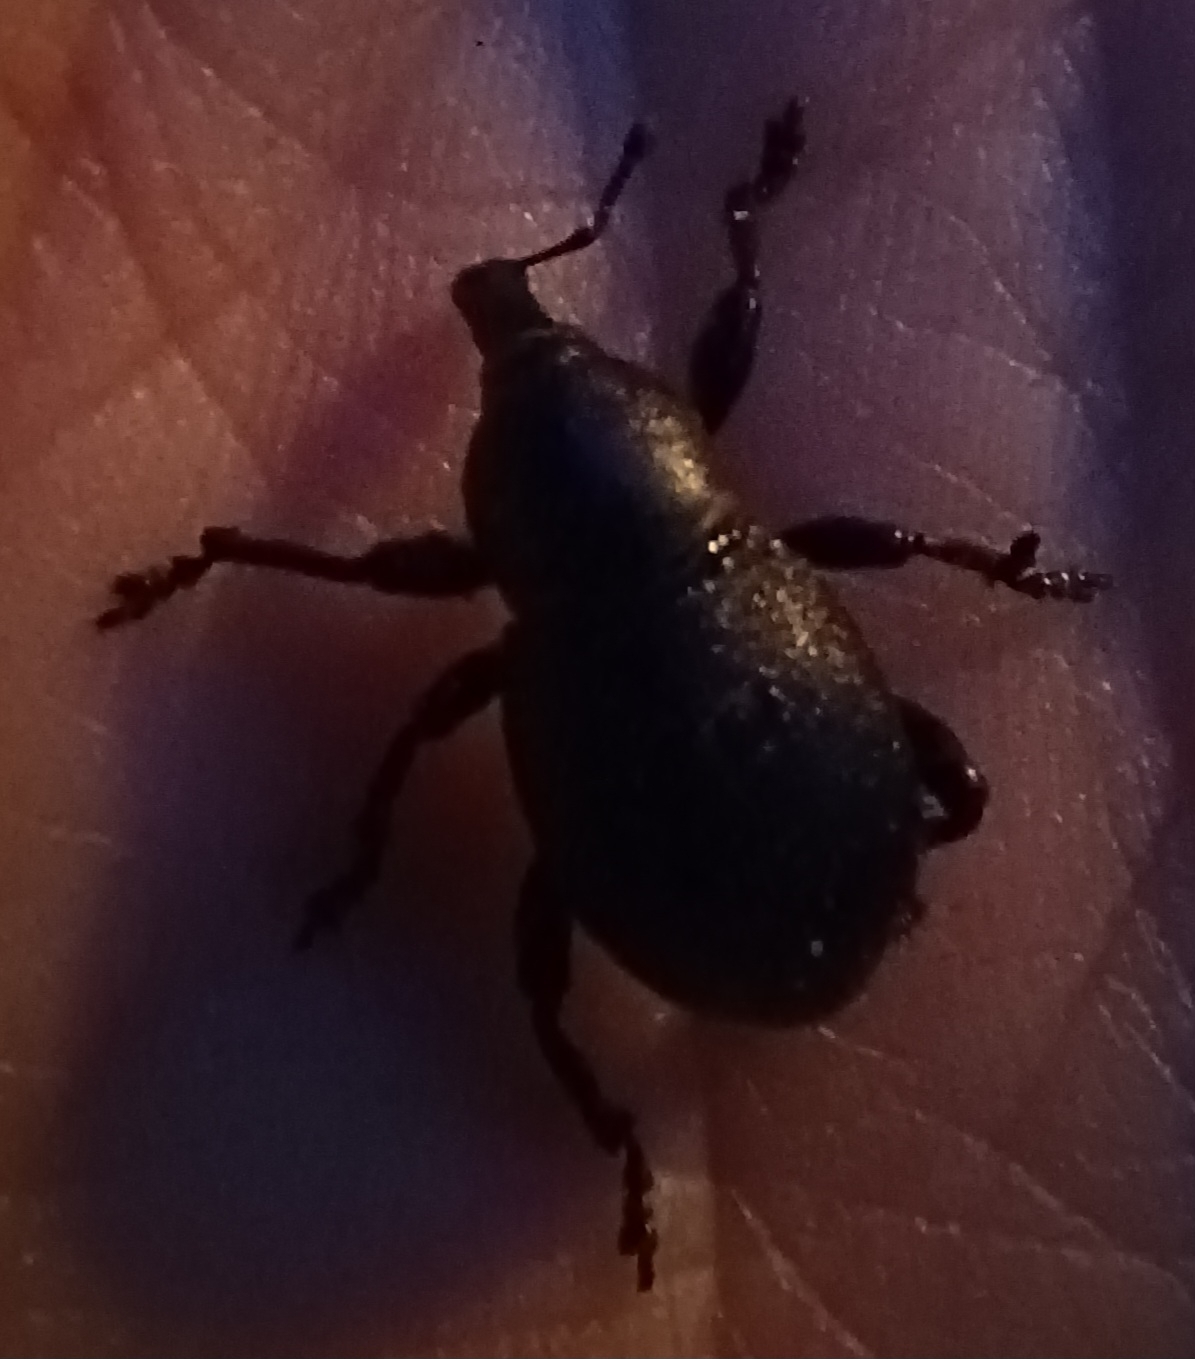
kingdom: Animalia
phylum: Arthropoda
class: Insecta
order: Coleoptera
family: Curculionidae
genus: Liparus
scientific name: Liparus coronatus
